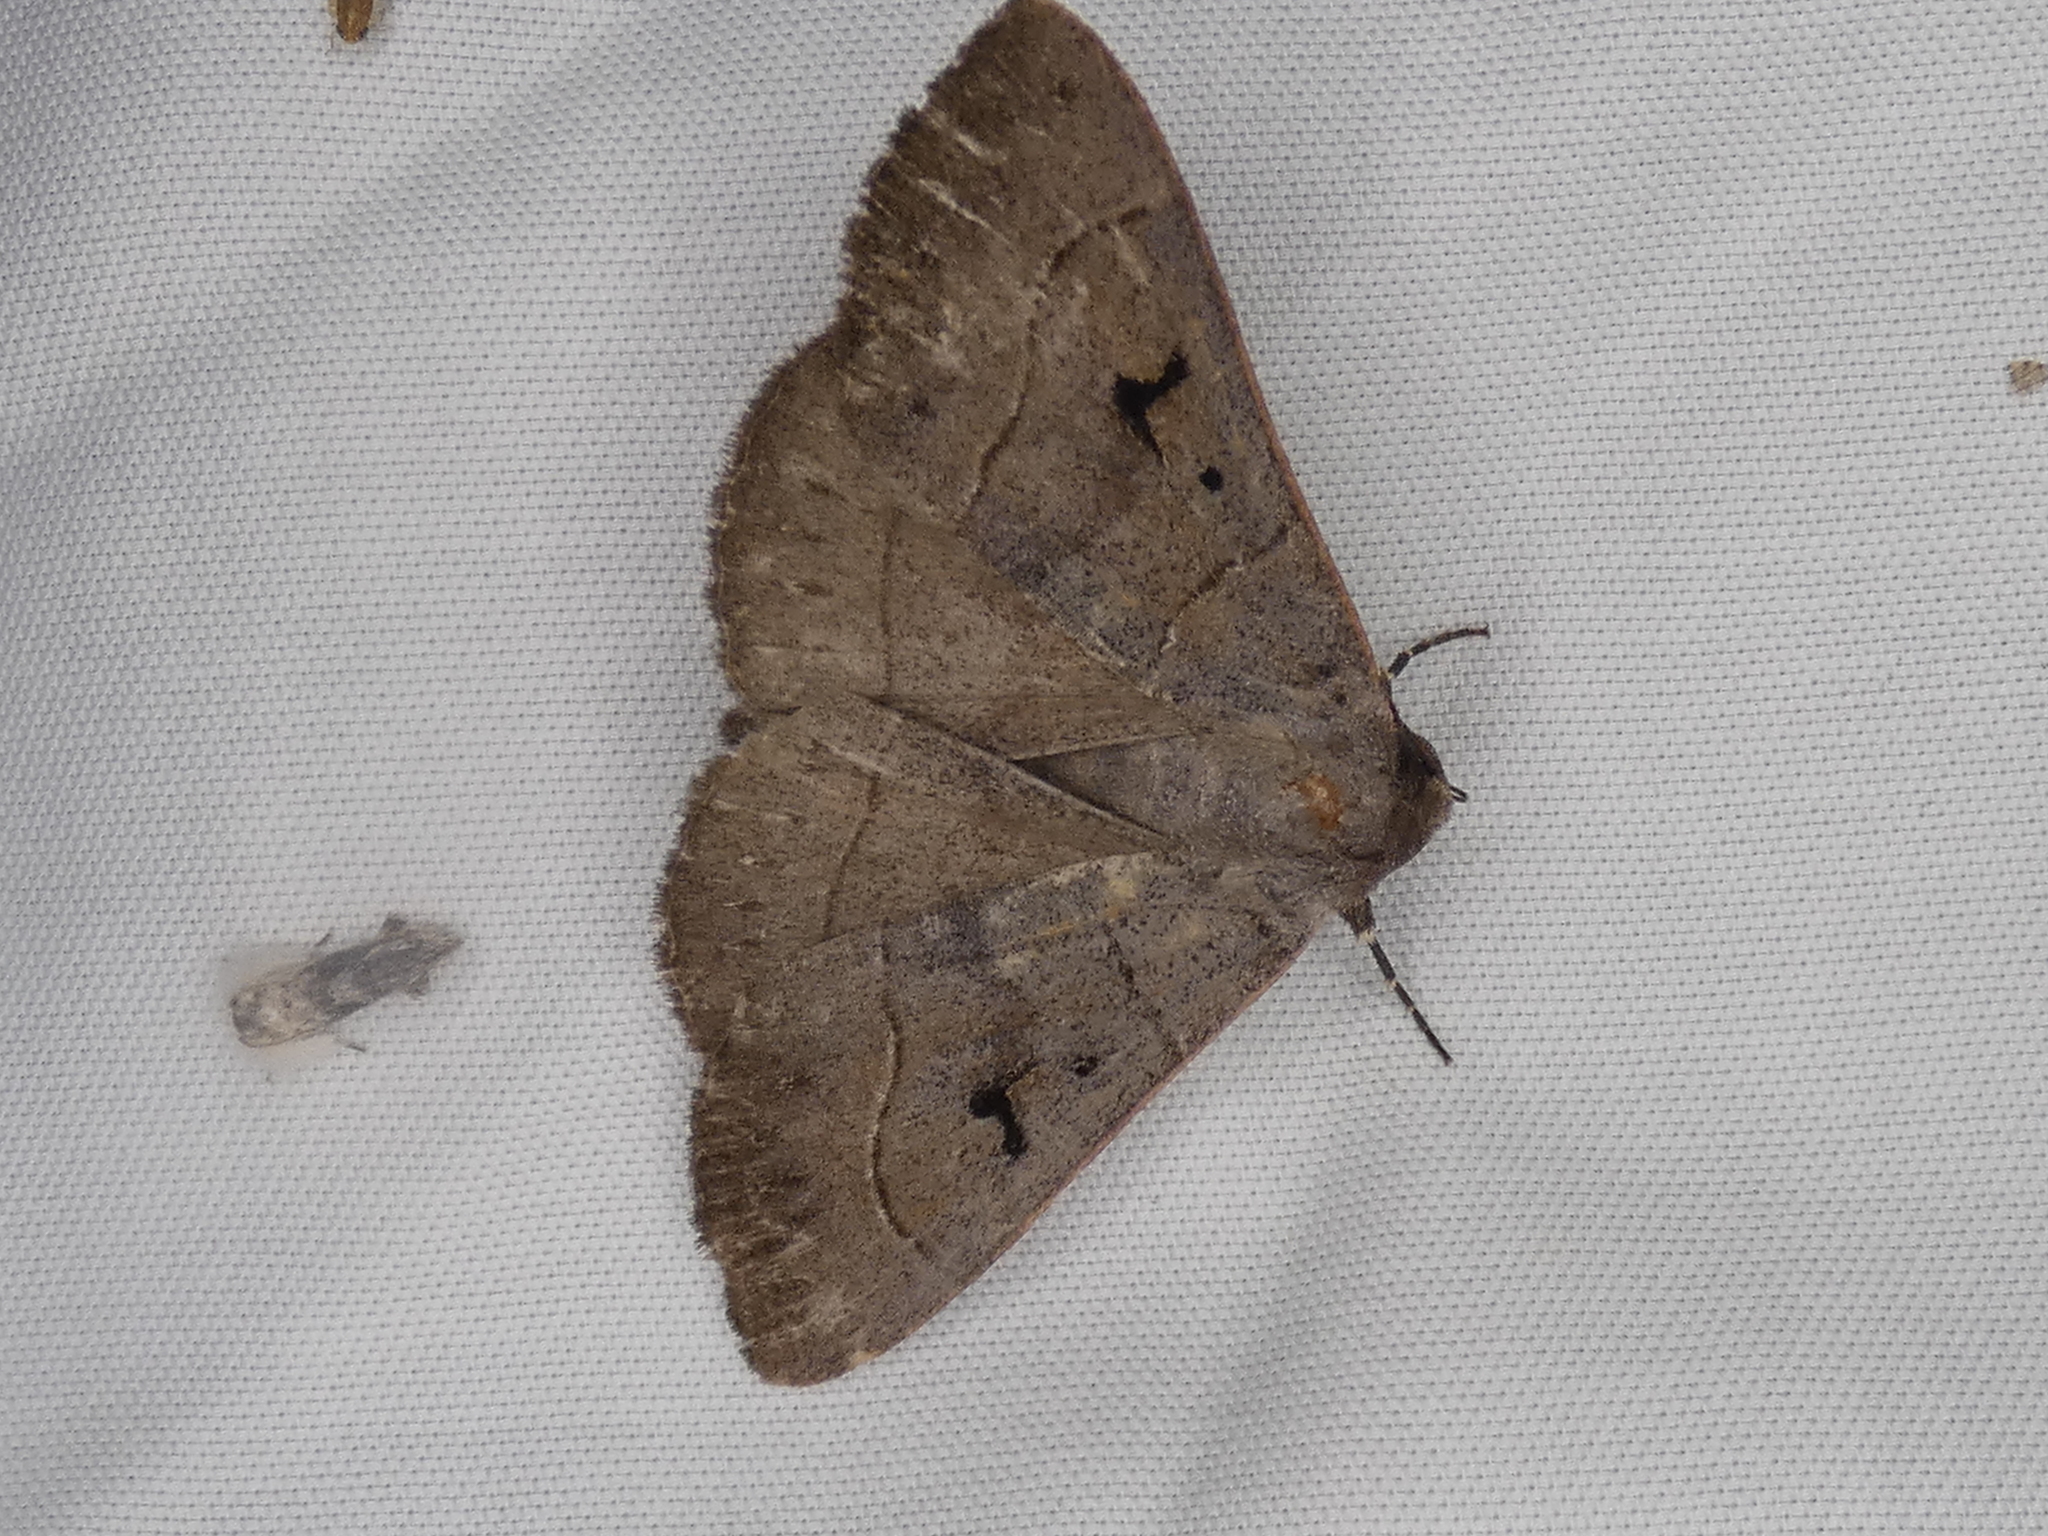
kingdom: Animalia
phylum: Arthropoda
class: Insecta
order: Lepidoptera
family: Erebidae
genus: Panopoda
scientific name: Panopoda carneicosta
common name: Brown panopoda moth
